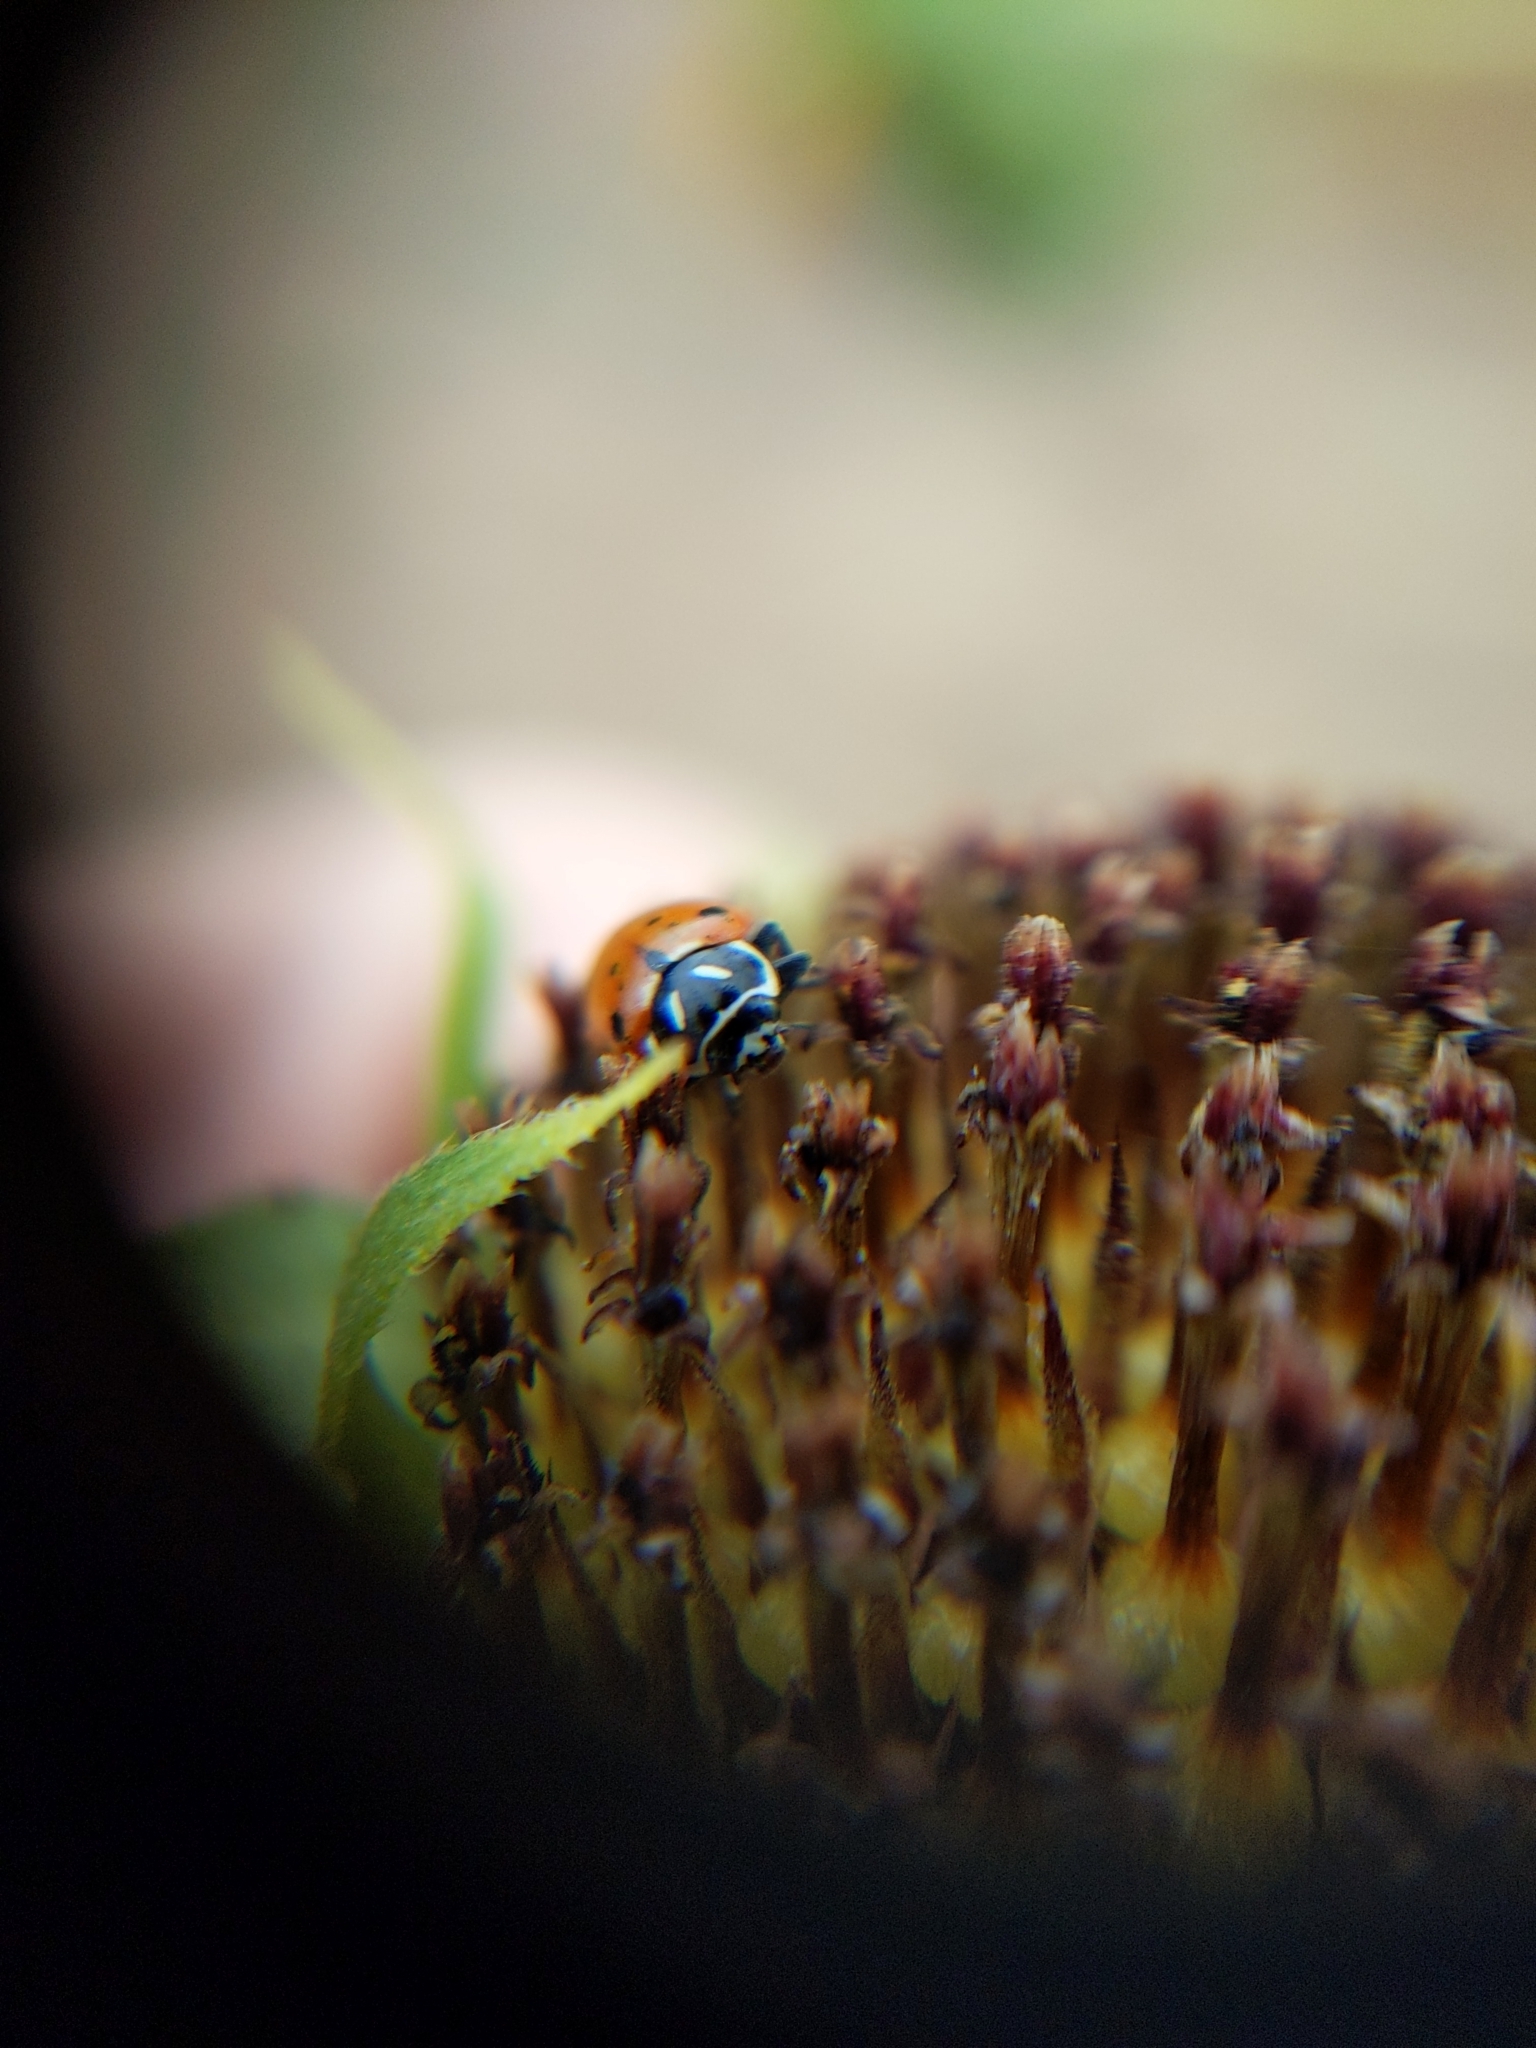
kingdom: Animalia
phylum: Arthropoda
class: Insecta
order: Coleoptera
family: Coccinellidae
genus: Hippodamia
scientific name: Hippodamia convergens
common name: Convergent lady beetle
